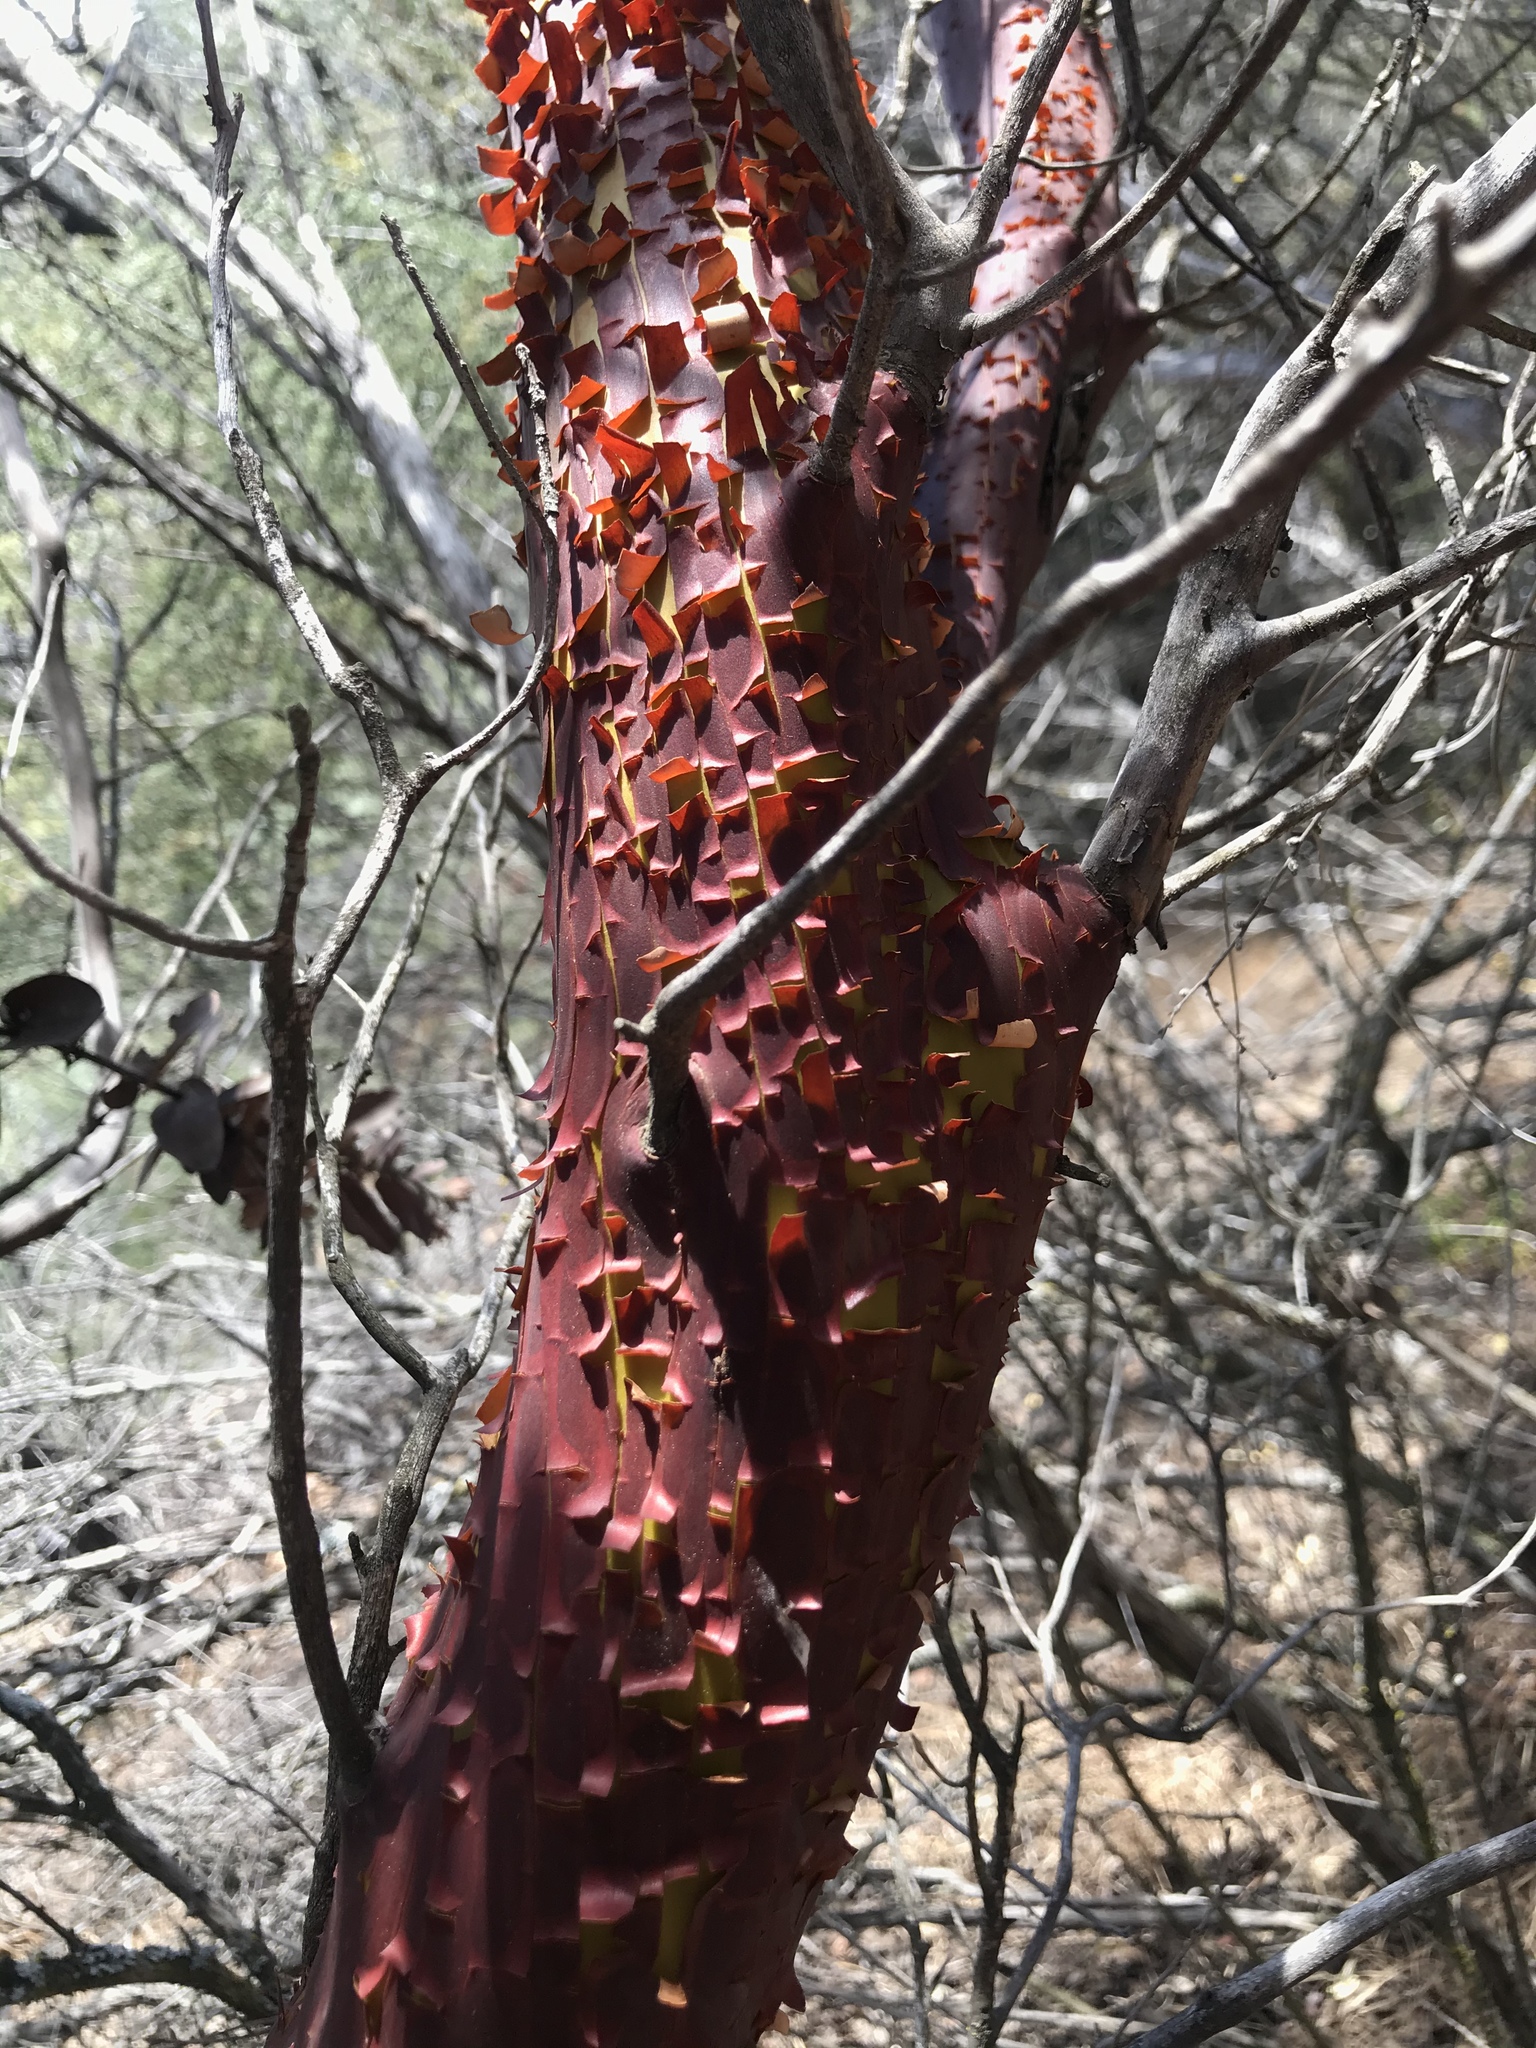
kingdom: Plantae
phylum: Tracheophyta
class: Magnoliopsida
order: Ericales
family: Ericaceae
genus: Arctostaphylos
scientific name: Arctostaphylos auriculata
